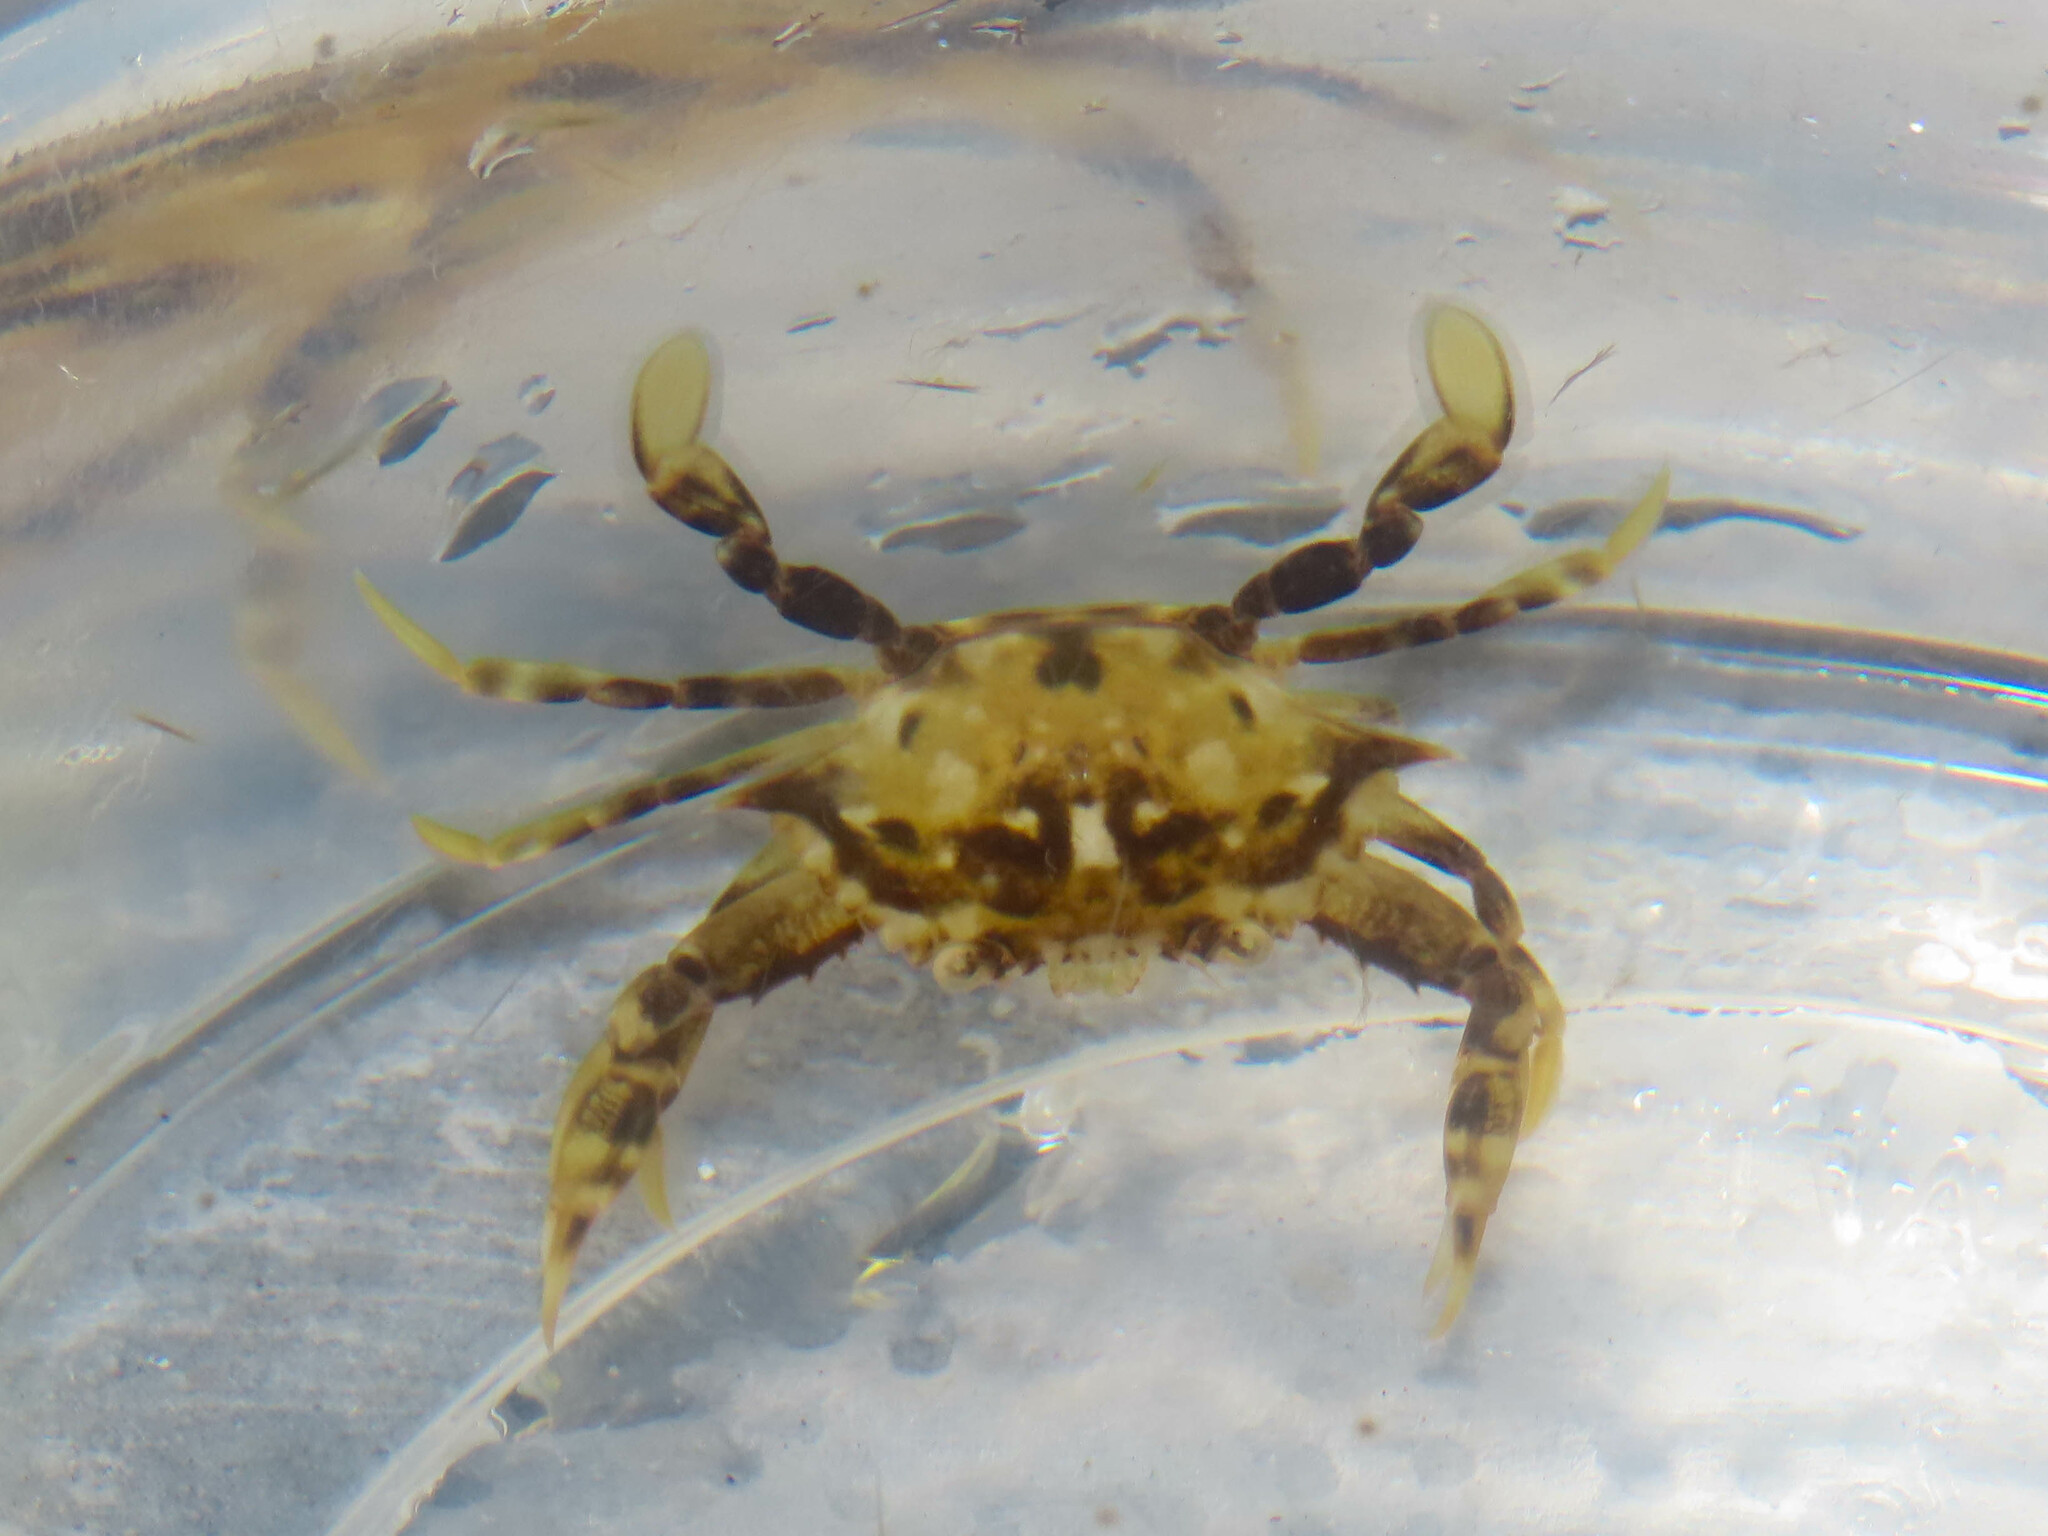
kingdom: Animalia
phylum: Arthropoda
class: Malacostraca
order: Decapoda
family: Portunidae
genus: Portunus
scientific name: Portunus sayi
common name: Sargassum crab
